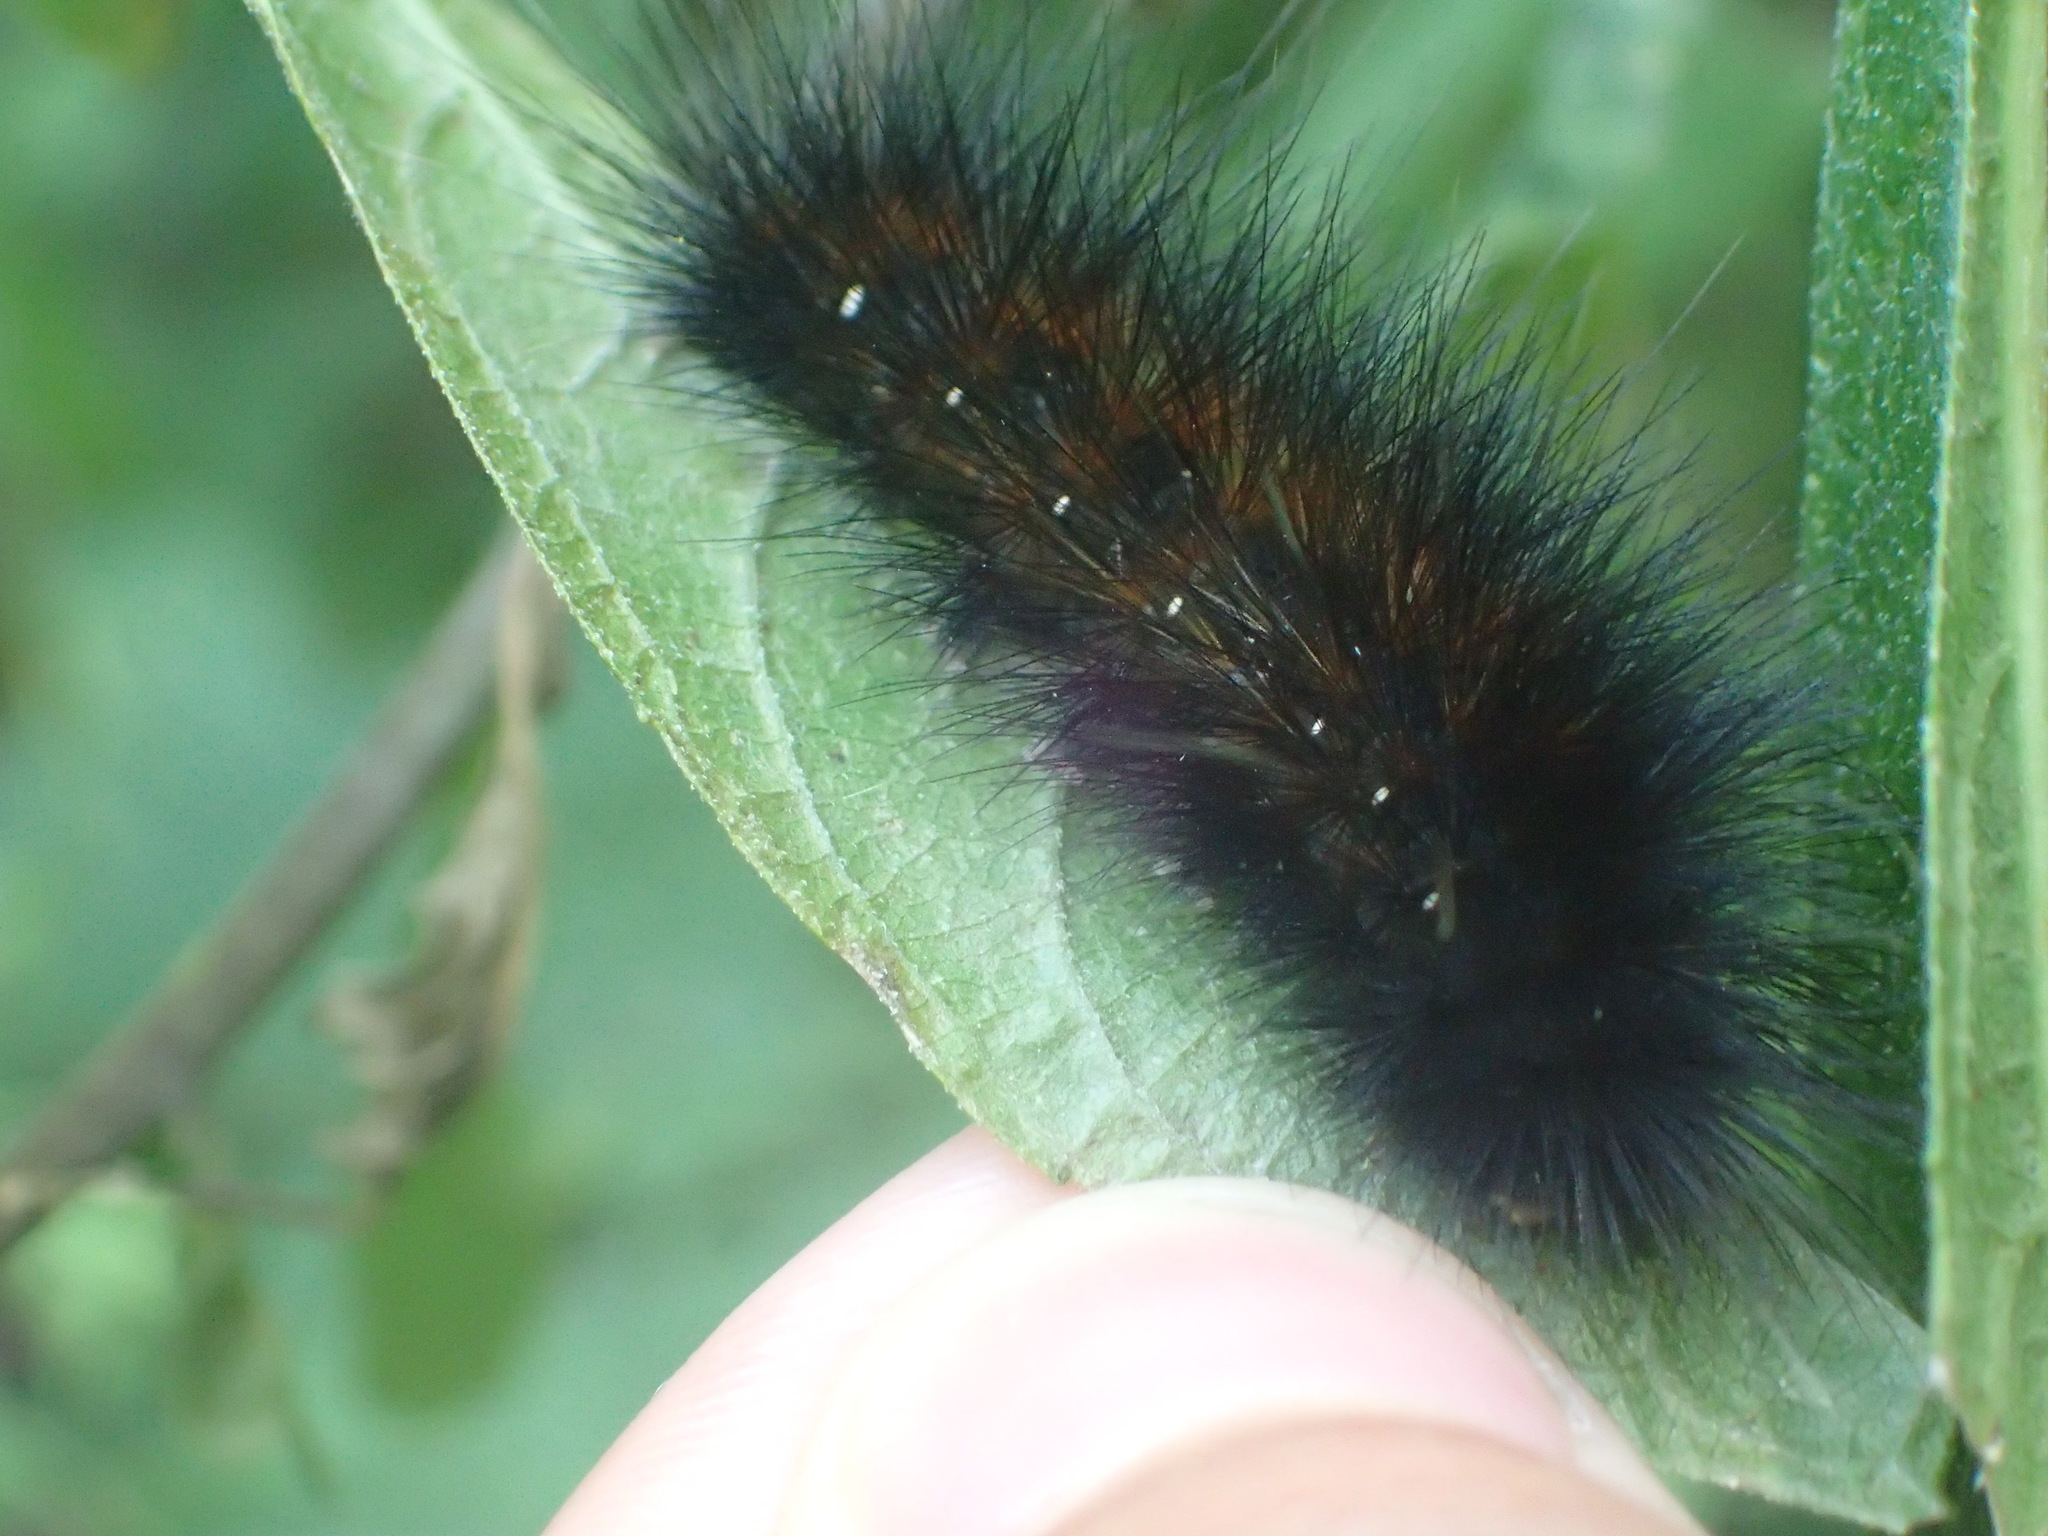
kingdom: Animalia
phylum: Arthropoda
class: Insecta
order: Lepidoptera
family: Erebidae
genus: Spilosoma
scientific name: Spilosoma virginica
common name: Virginia tiger moth
